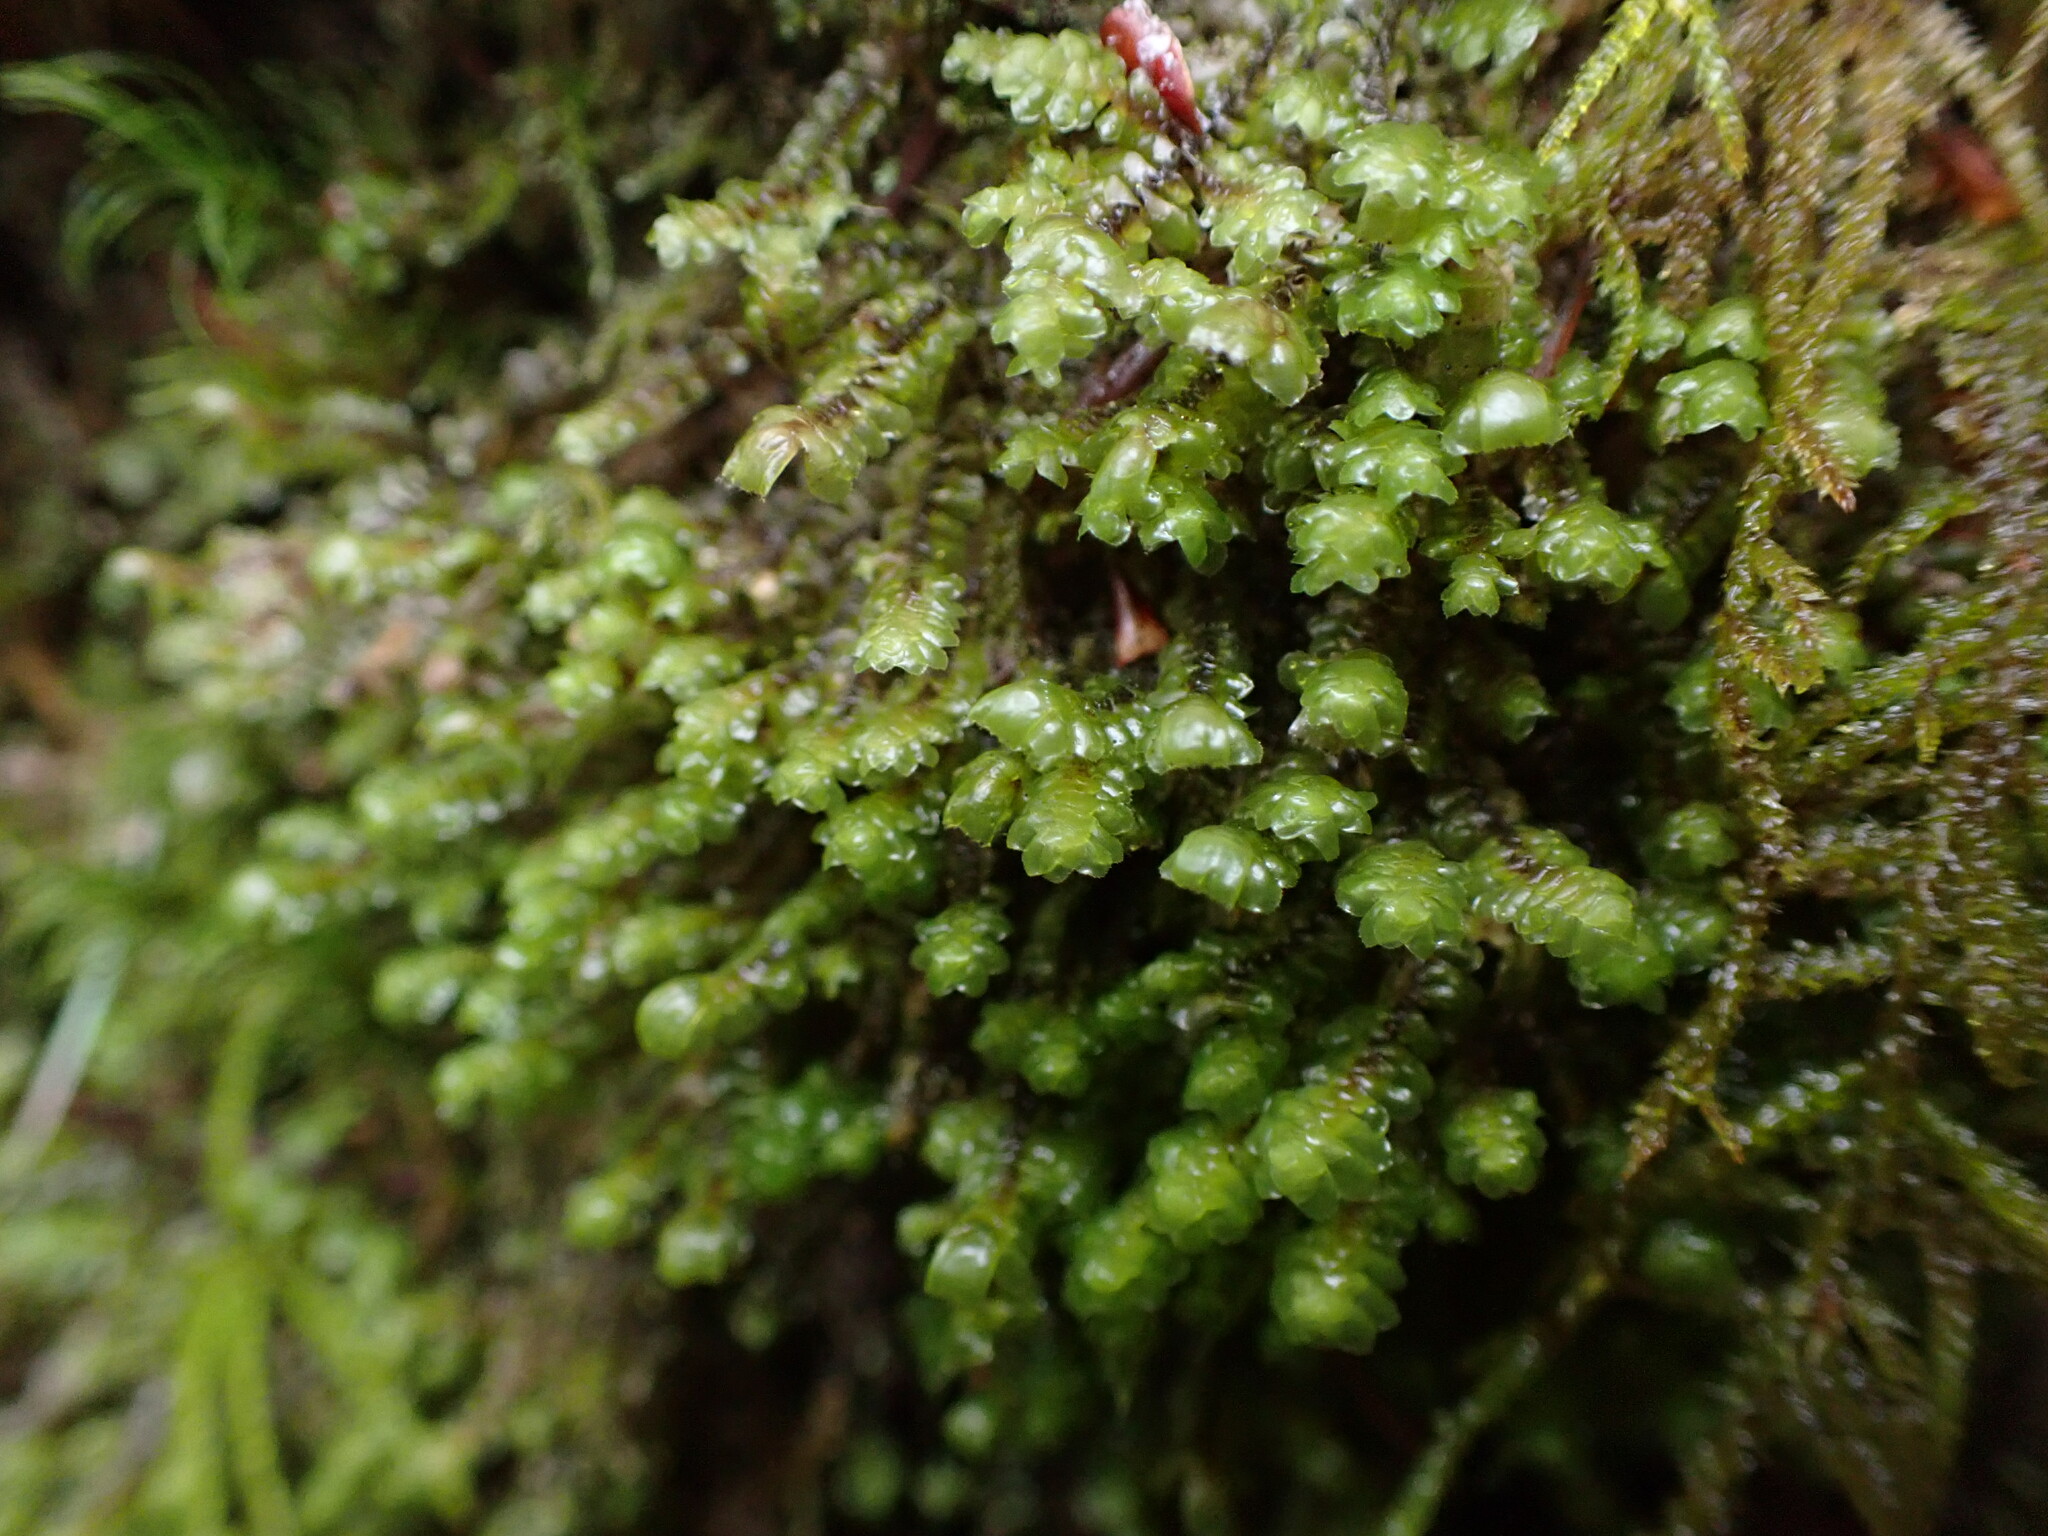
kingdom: Plantae
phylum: Marchantiophyta
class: Jungermanniopsida
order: Jungermanniales
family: Scapaniaceae
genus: Scapania
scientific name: Scapania bolanderi
